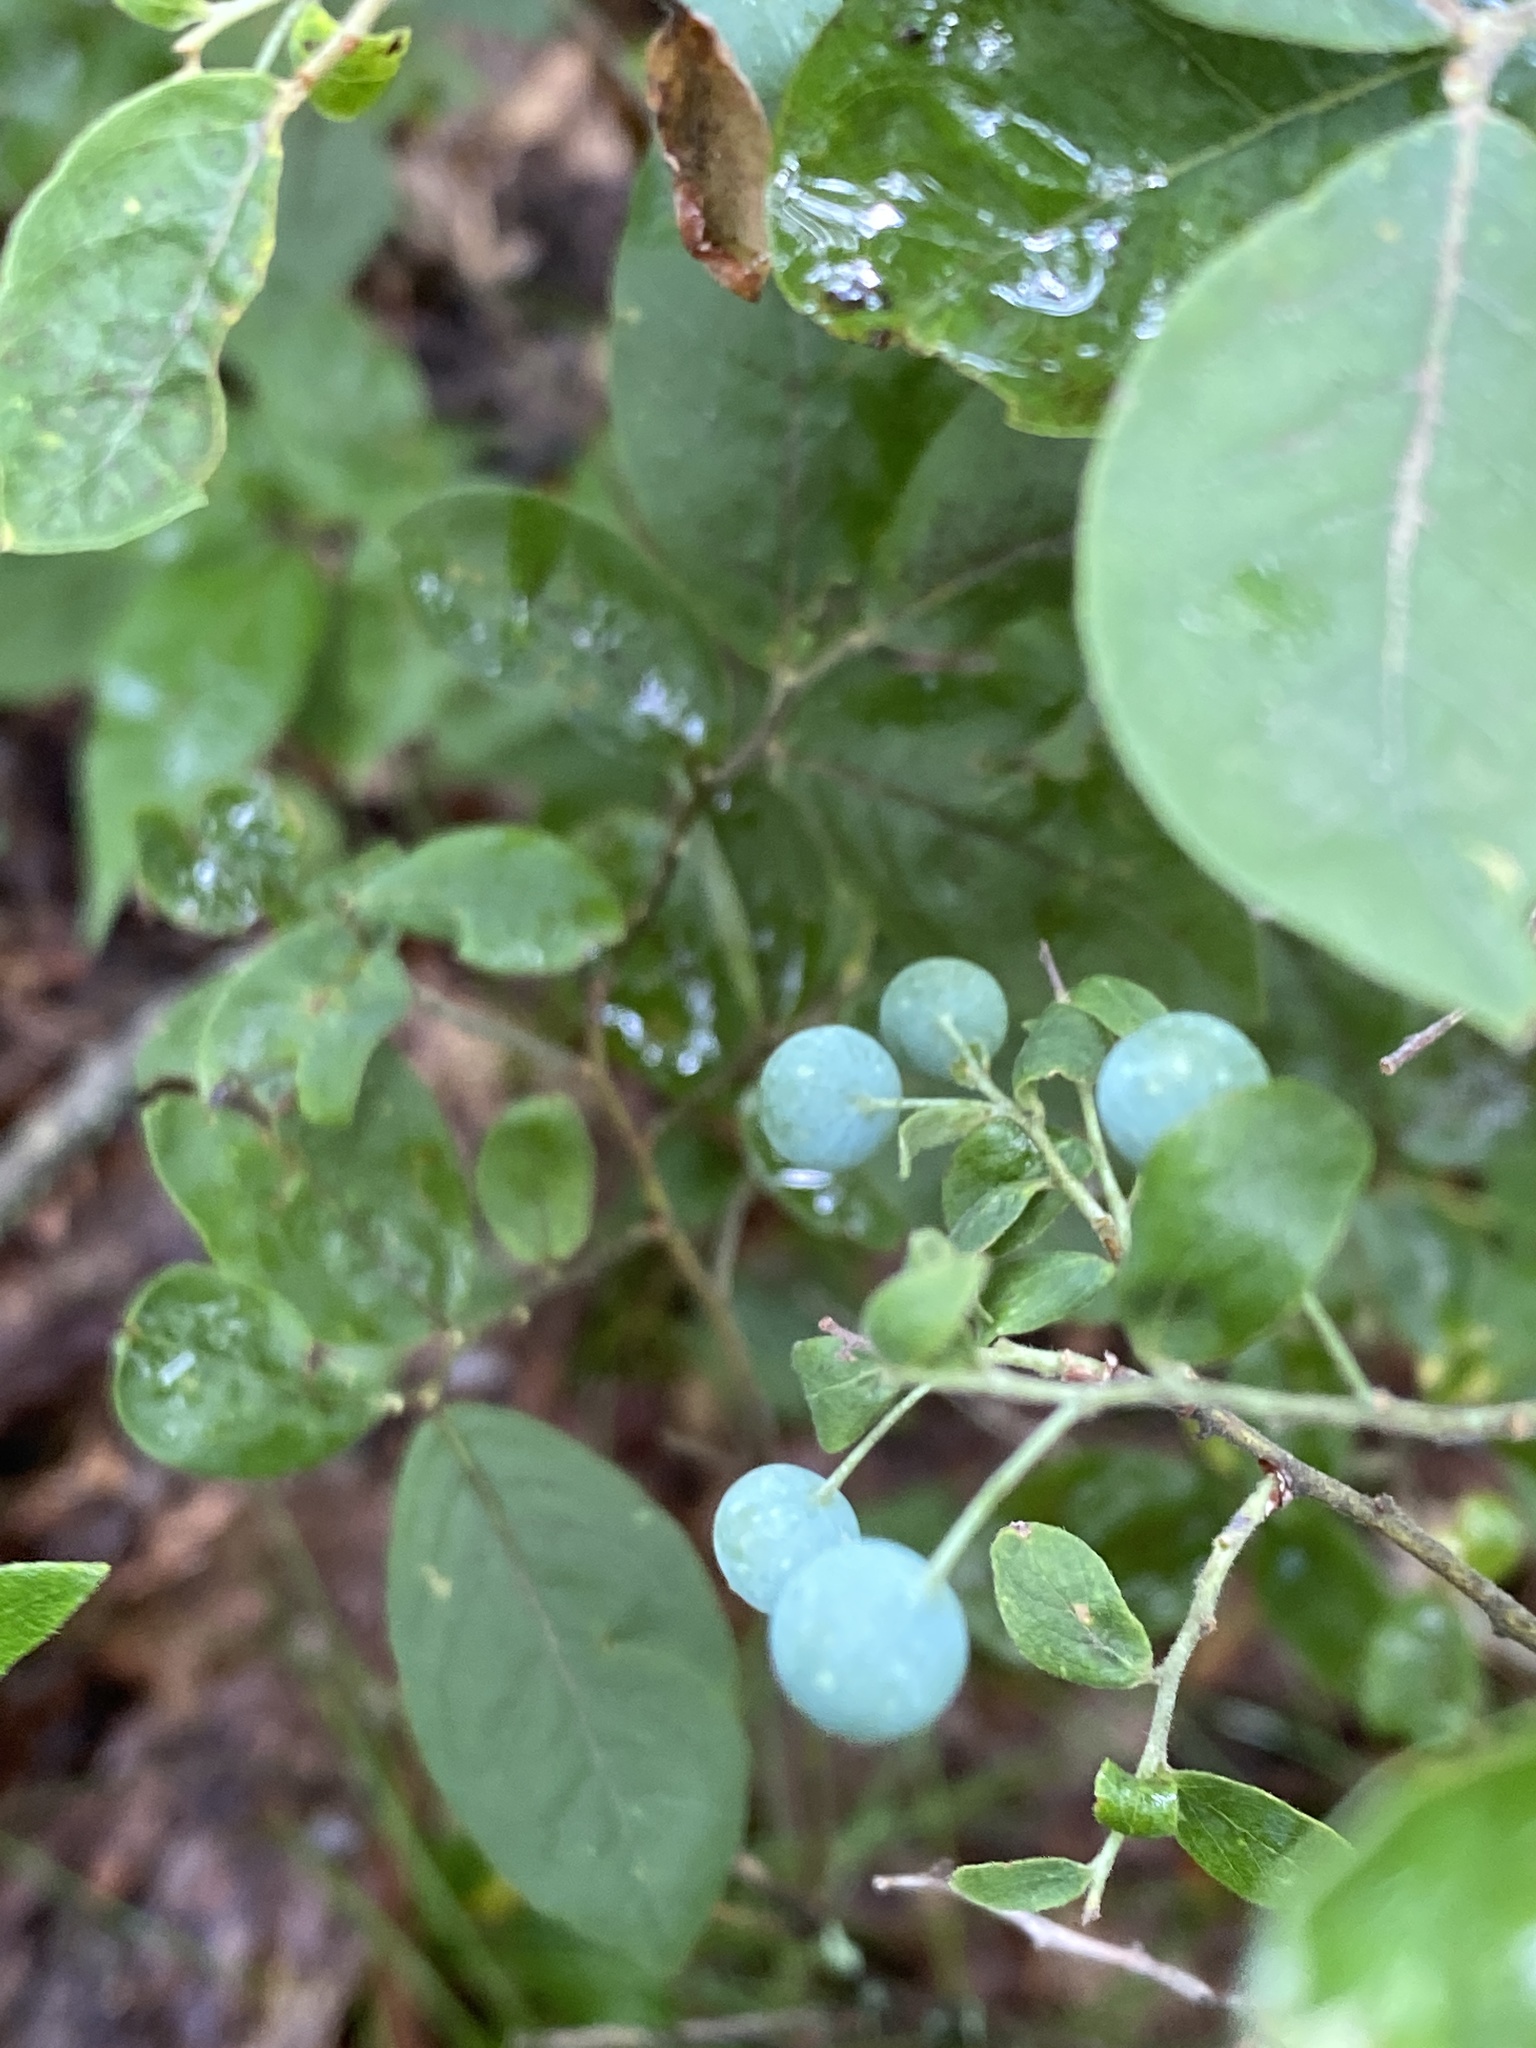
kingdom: Plantae
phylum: Tracheophyta
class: Magnoliopsida
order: Ericales
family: Ericaceae
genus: Vaccinium
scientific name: Vaccinium stamineum
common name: Deerberry
